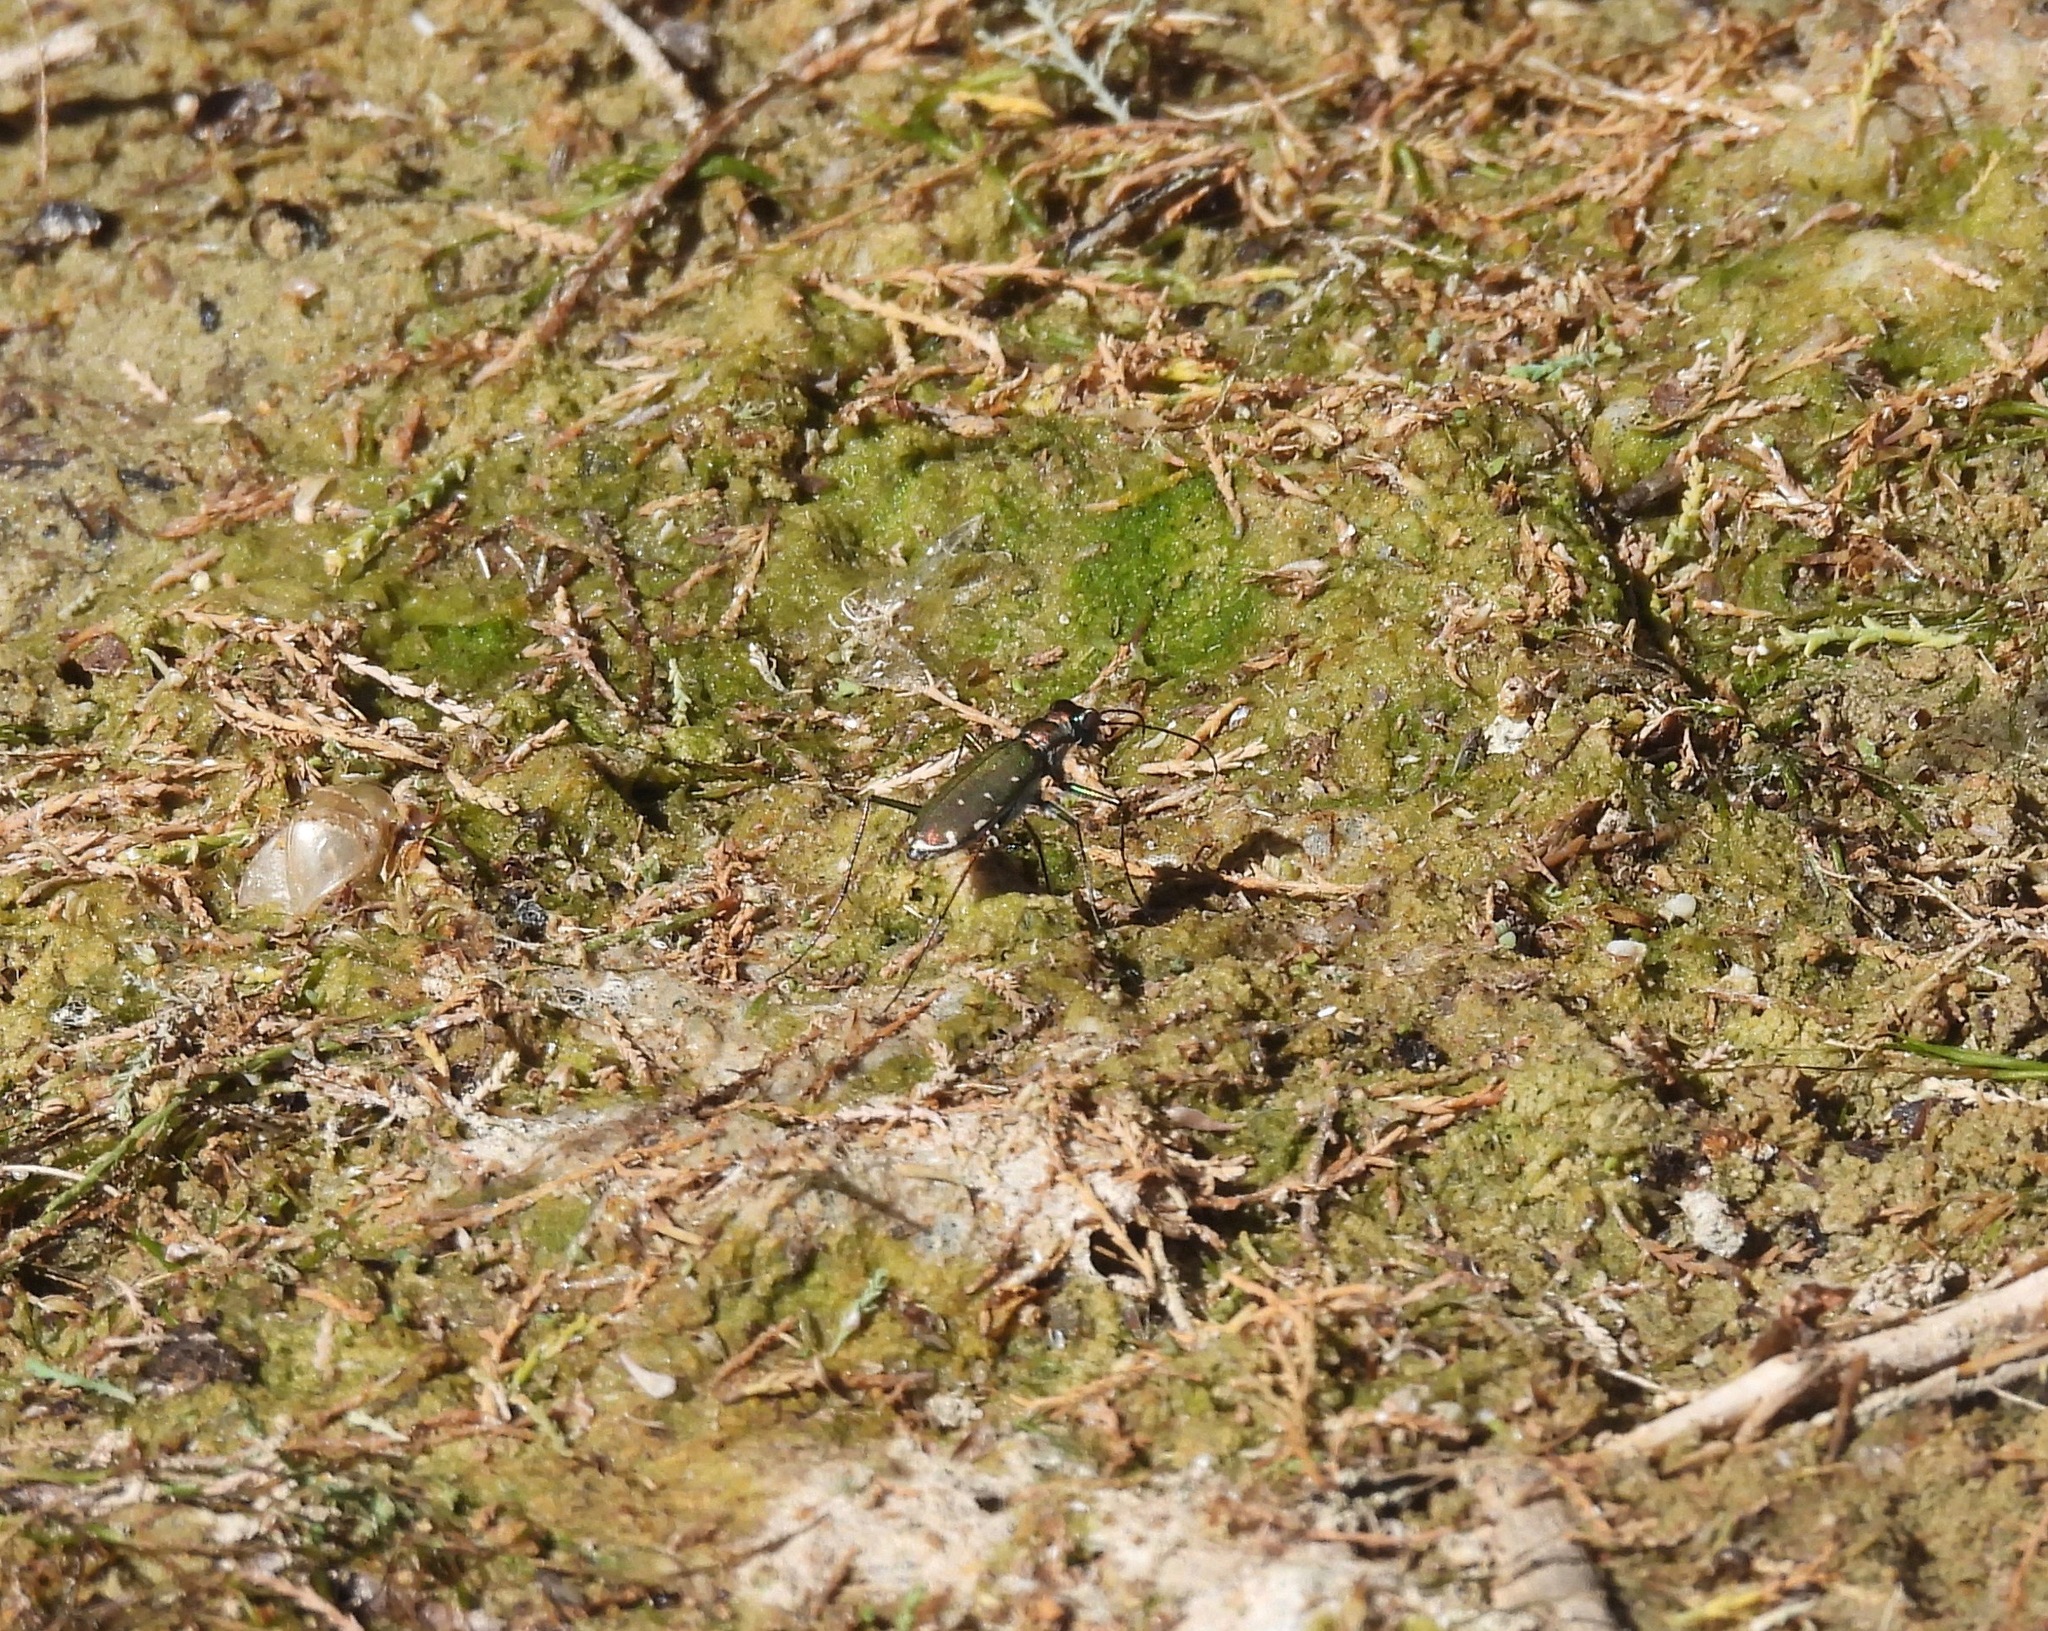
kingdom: Animalia
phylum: Arthropoda
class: Insecta
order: Coleoptera
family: Carabidae
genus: Cicindela
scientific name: Cicindela punctulata
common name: Punctured tiger beetle
